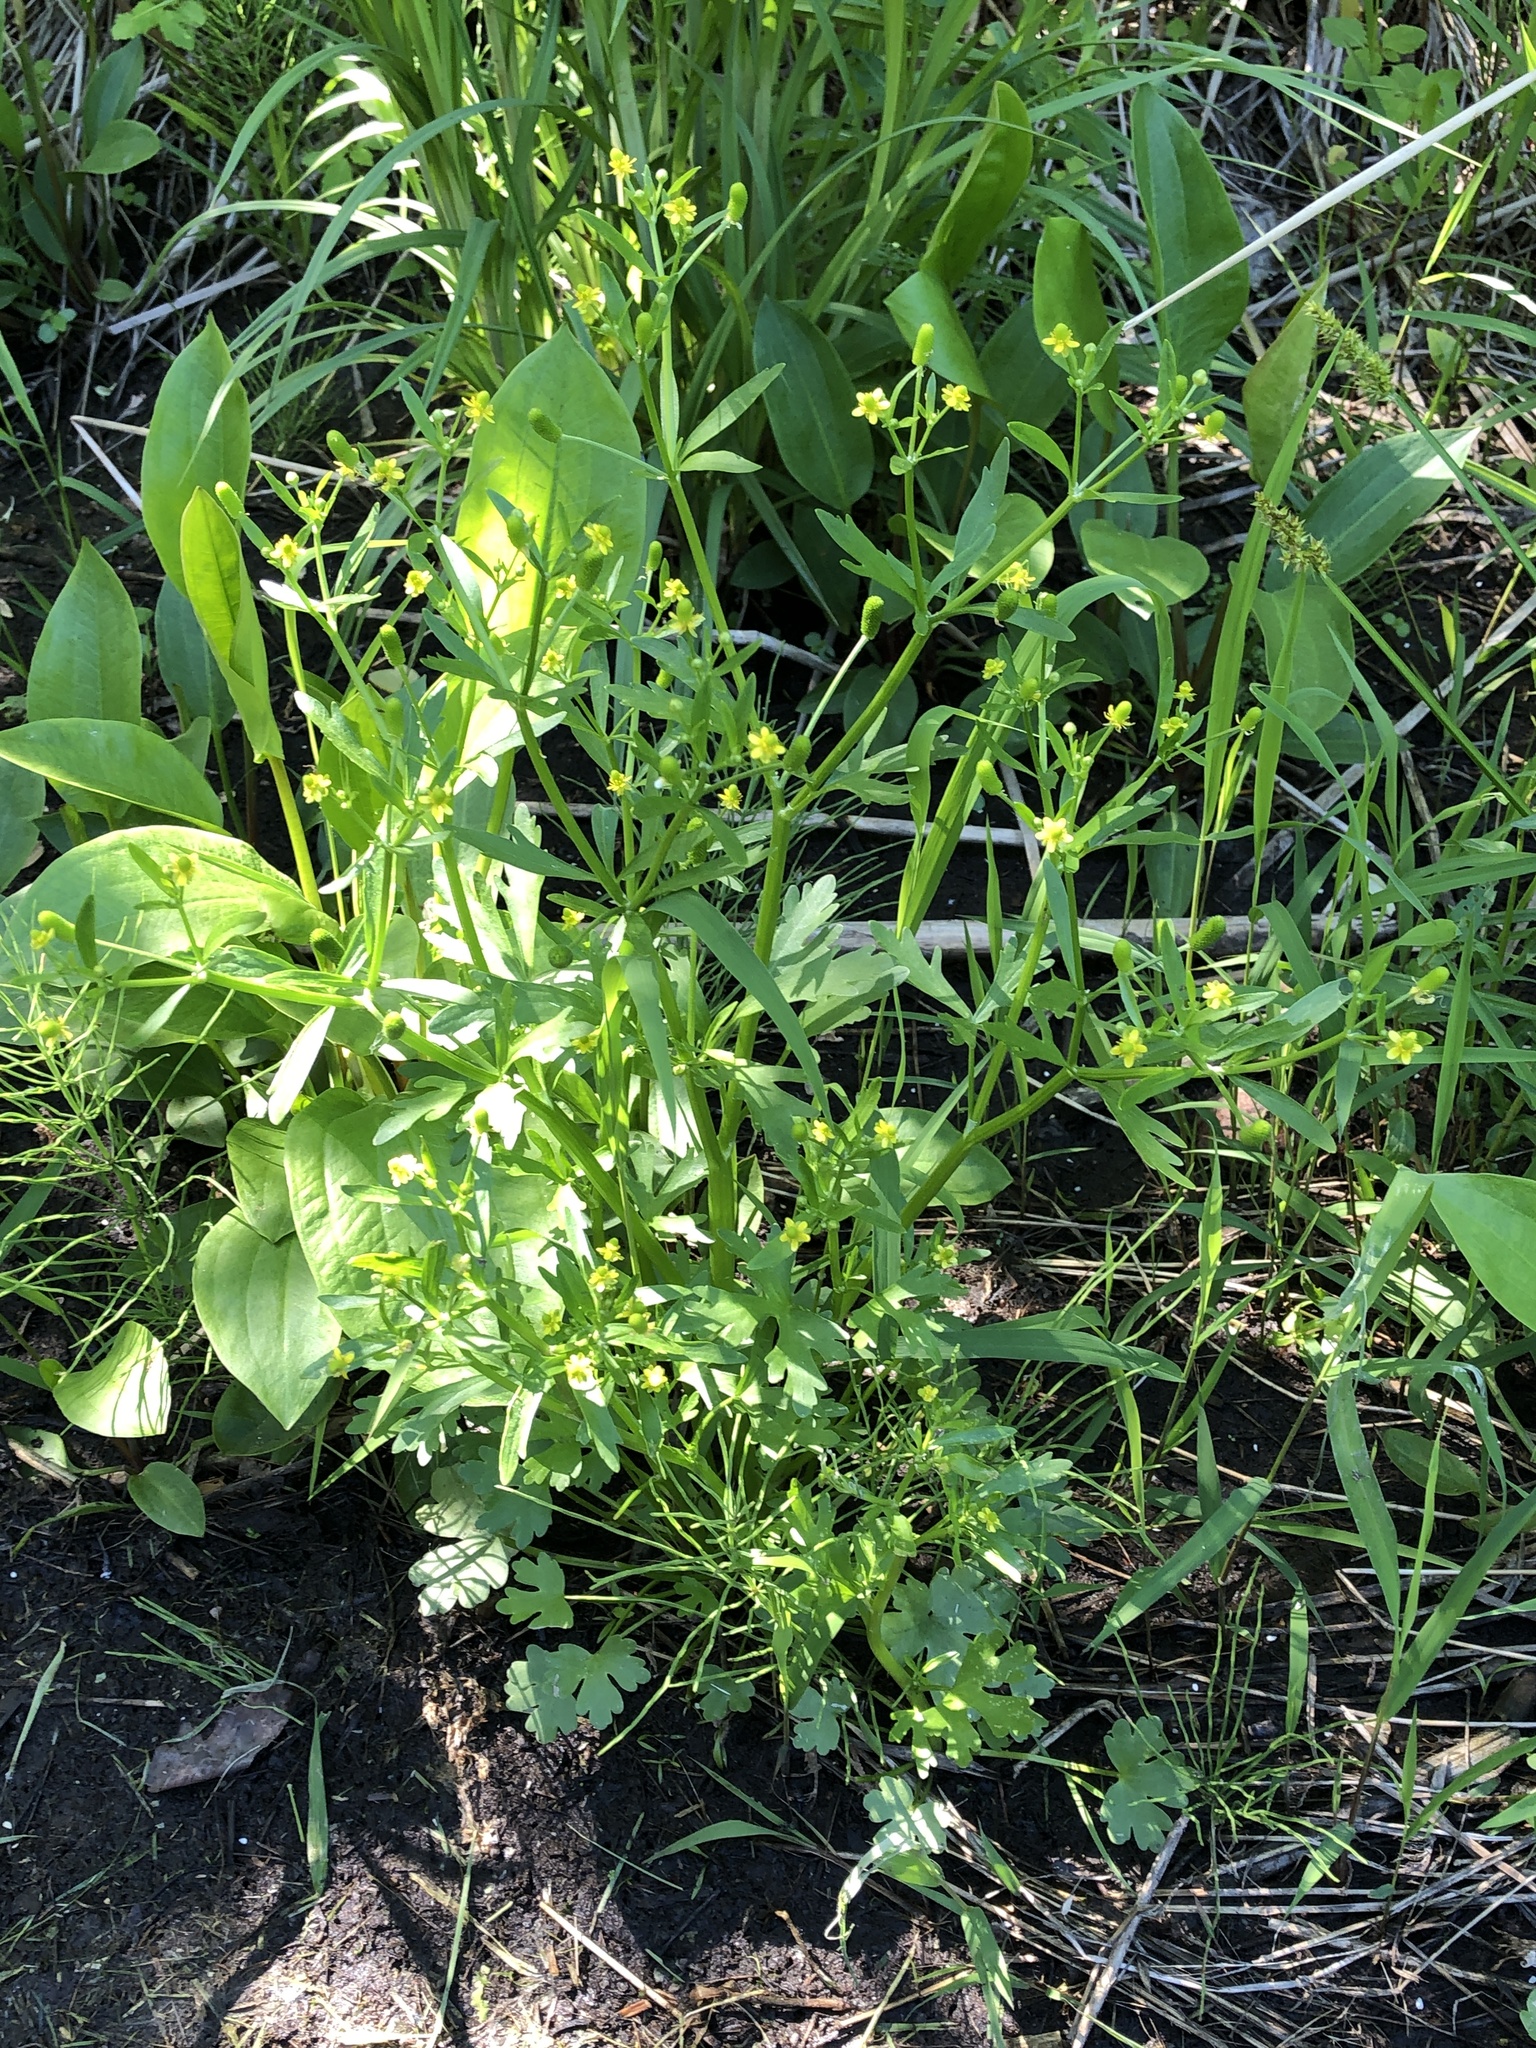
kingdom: Plantae
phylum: Tracheophyta
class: Magnoliopsida
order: Ranunculales
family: Ranunculaceae
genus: Ranunculus
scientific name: Ranunculus sceleratus
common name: Celery-leaved buttercup
